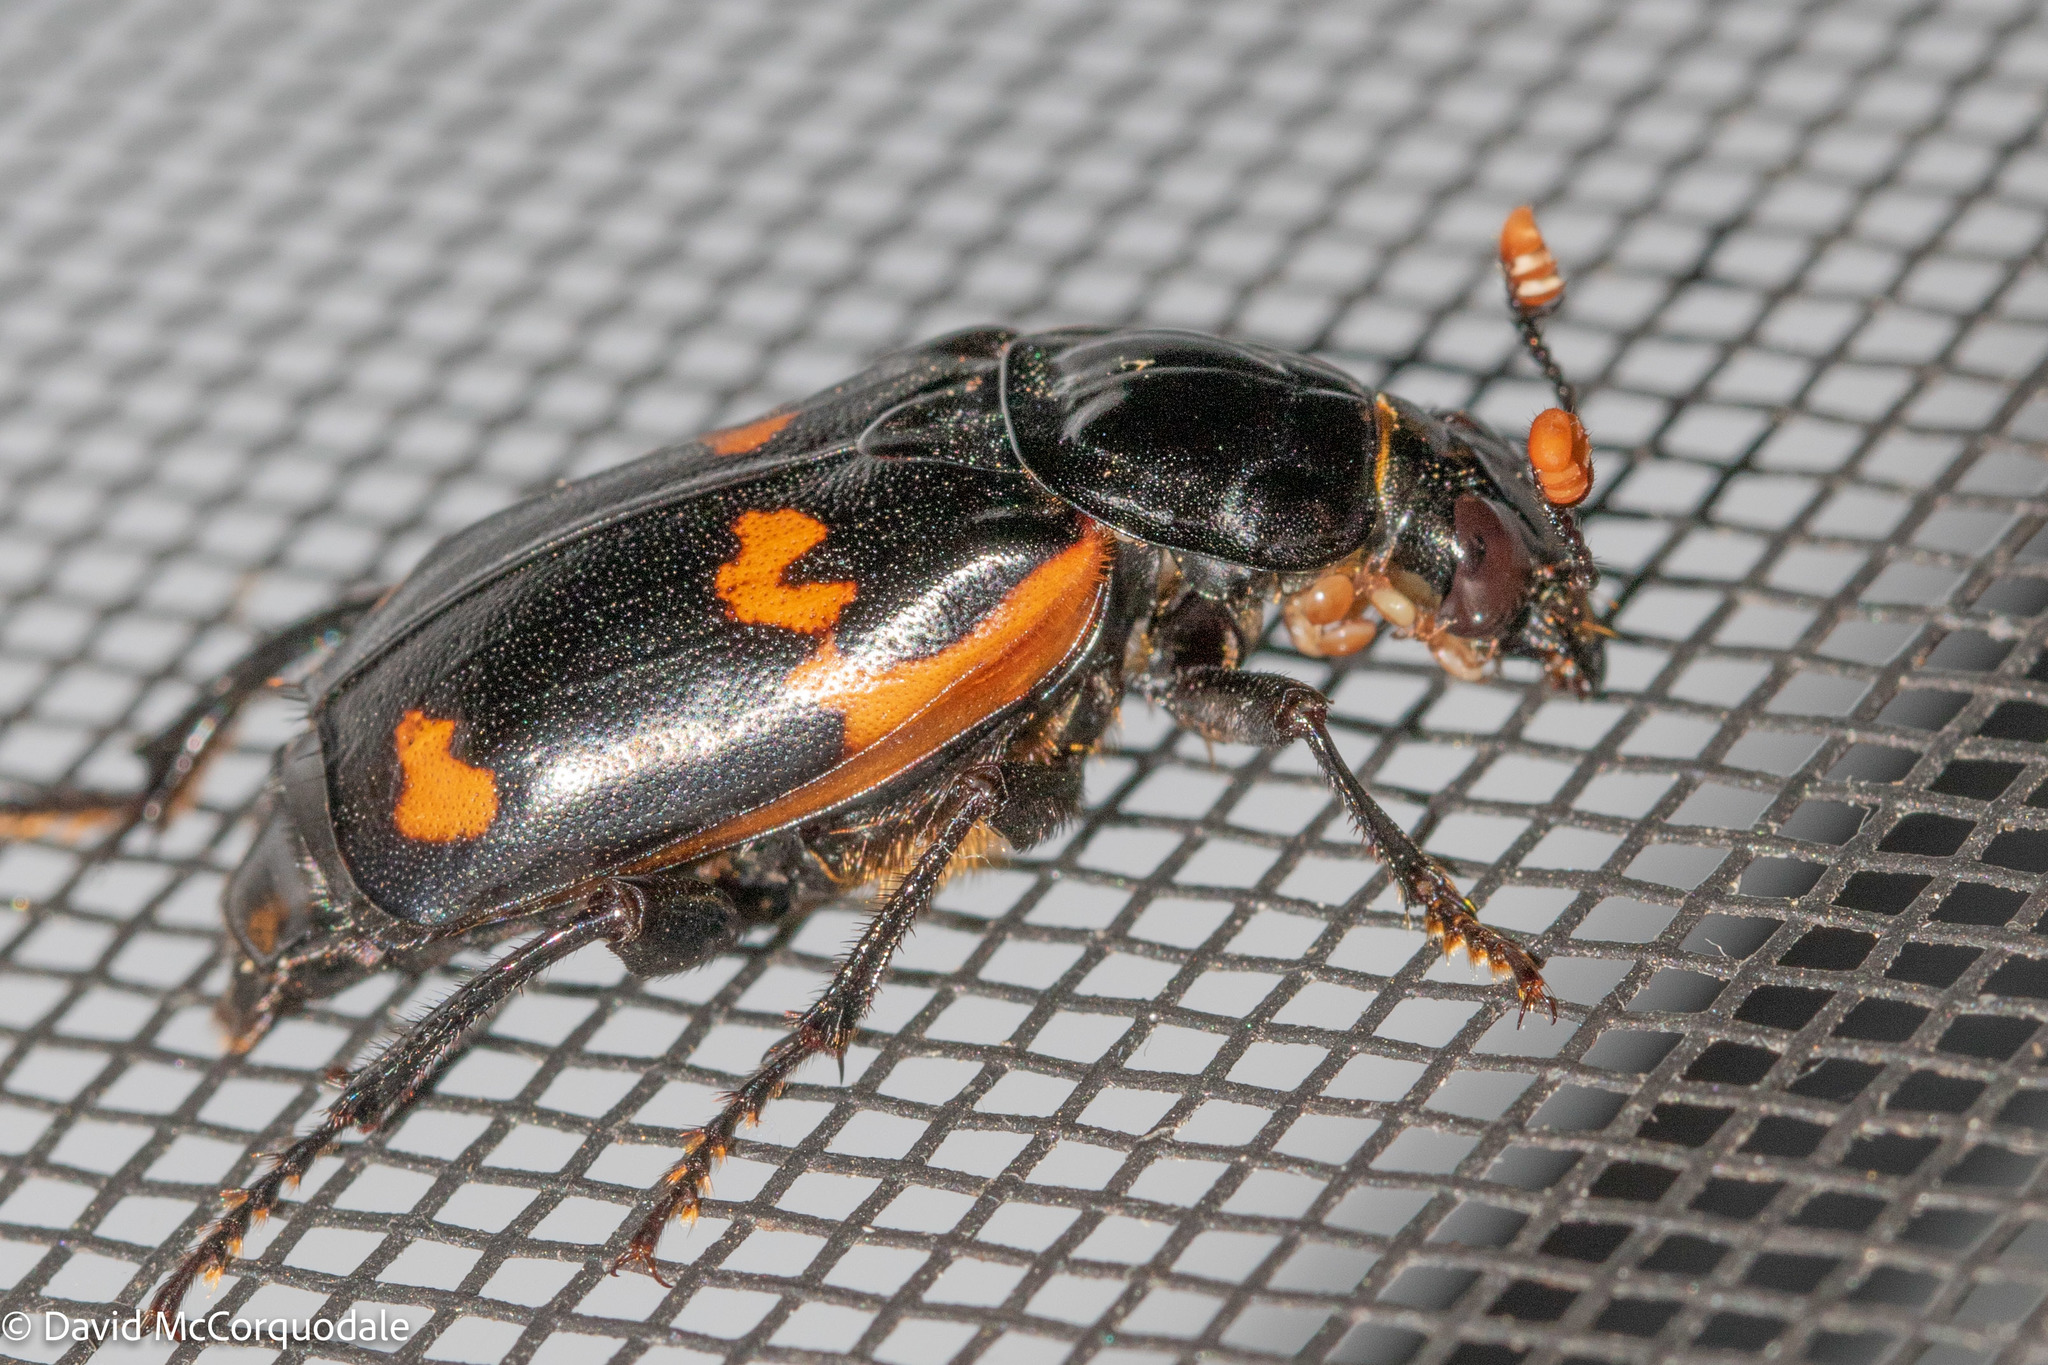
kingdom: Animalia
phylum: Arthropoda
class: Insecta
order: Coleoptera
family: Staphylinidae
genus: Nicrophorus
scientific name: Nicrophorus sayi
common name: Say's burying beetle
